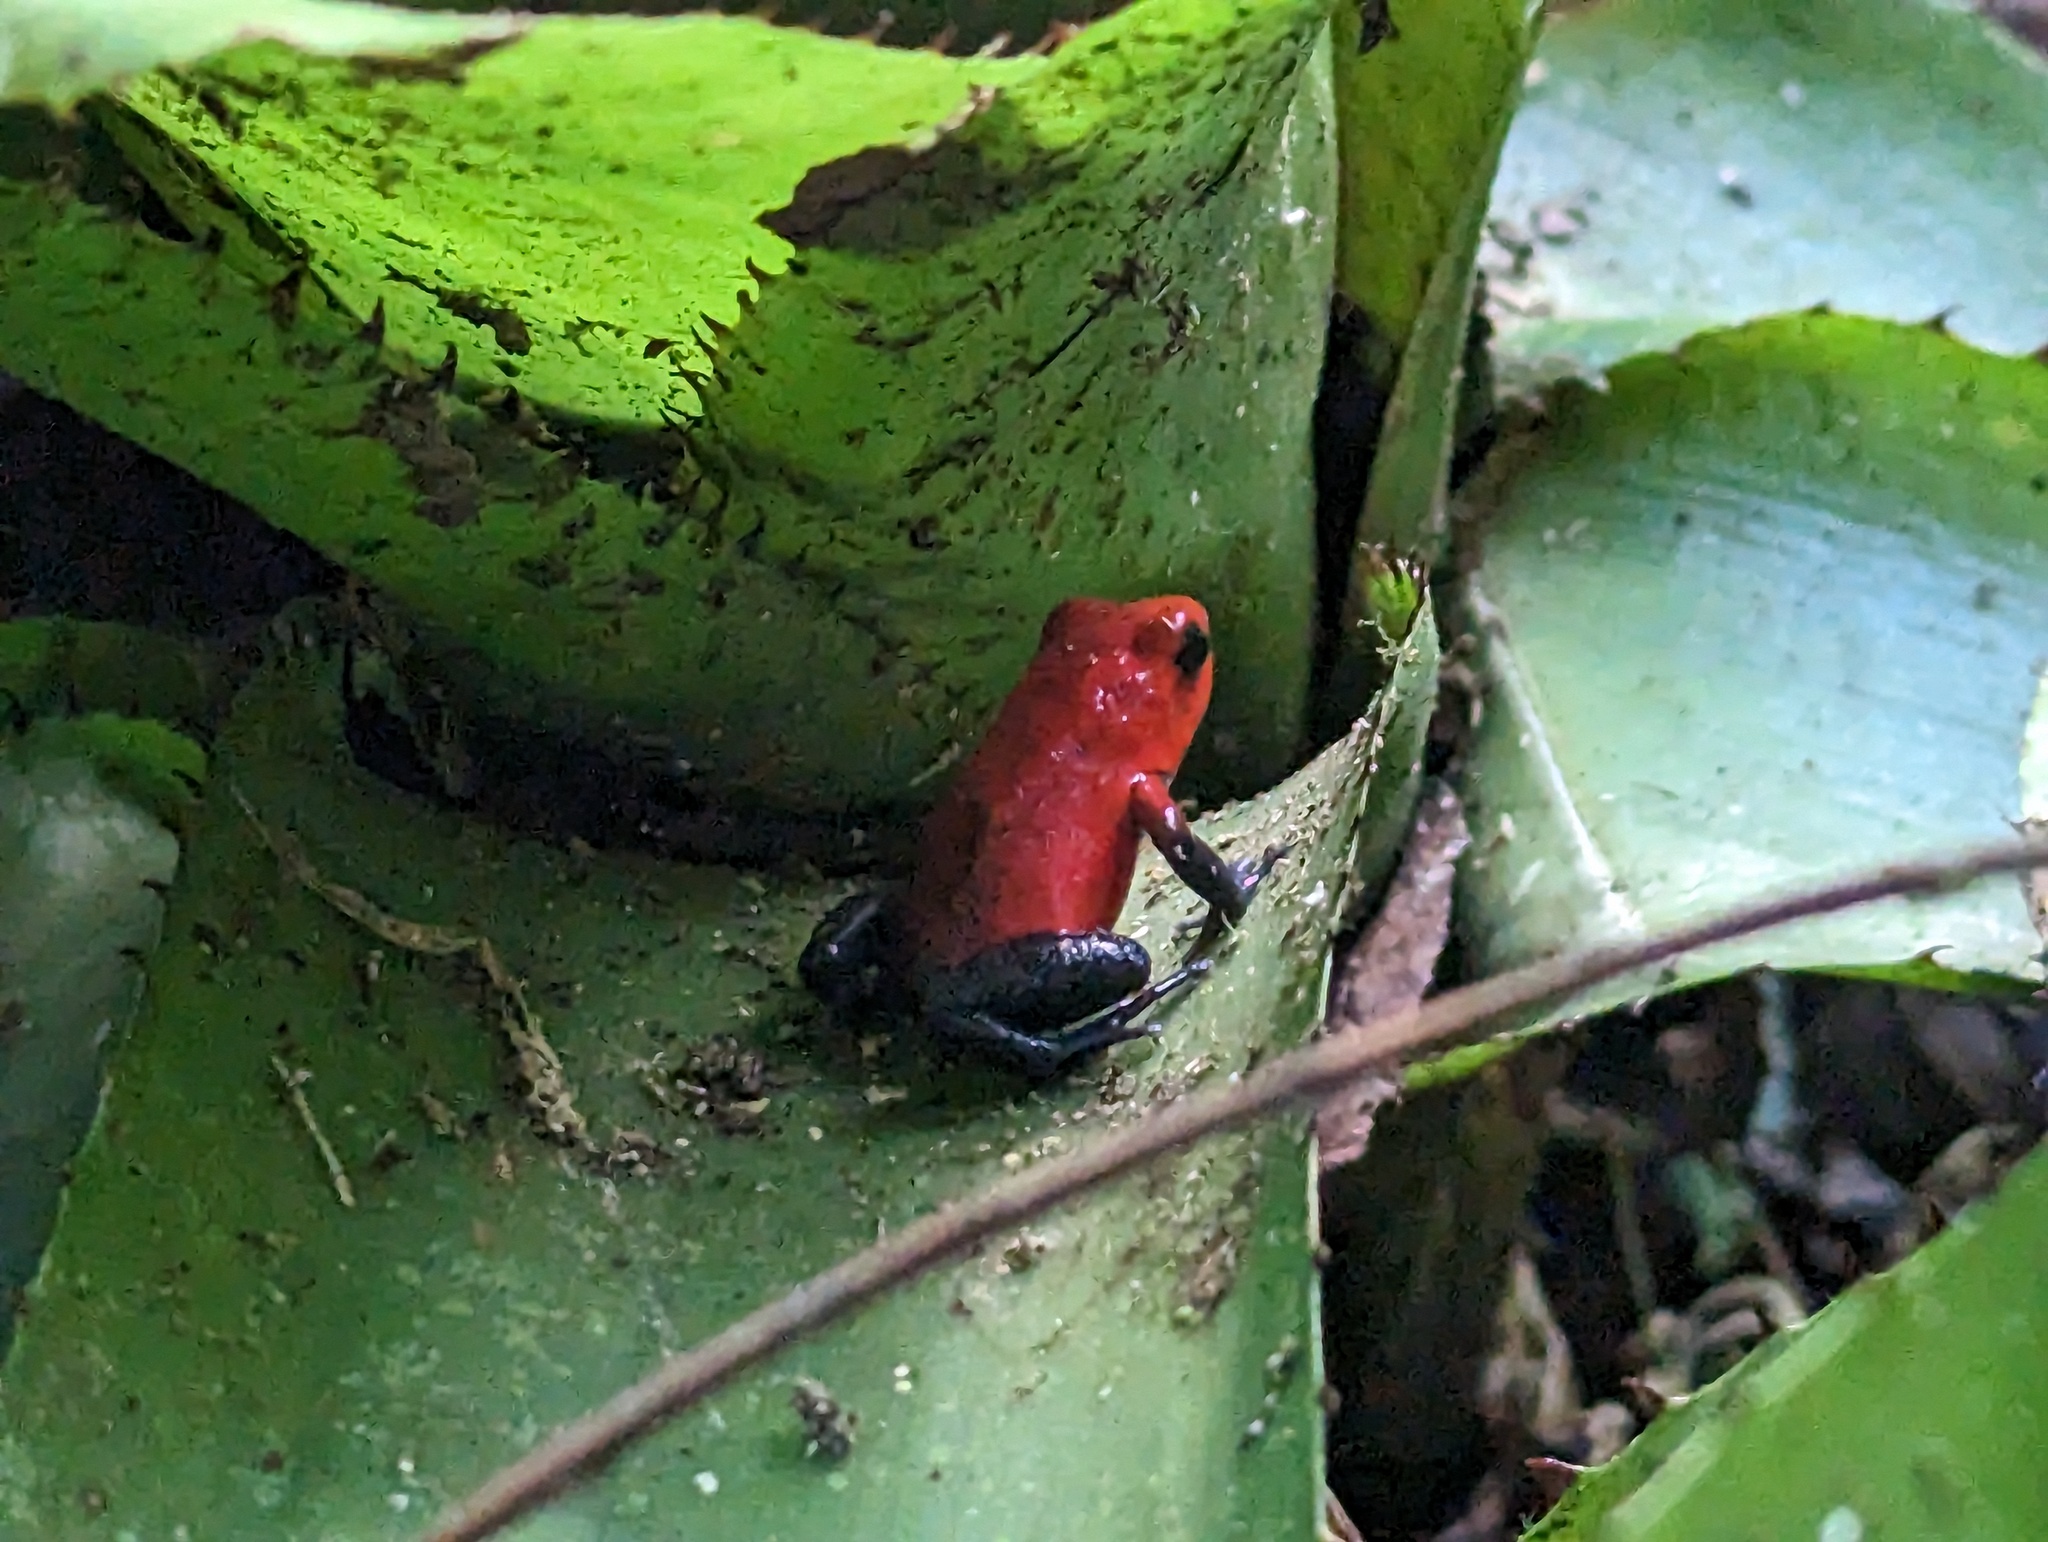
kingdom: Animalia
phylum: Chordata
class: Amphibia
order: Anura
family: Dendrobatidae
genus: Oophaga
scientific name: Oophaga pumilio
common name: Flaming poison frog
